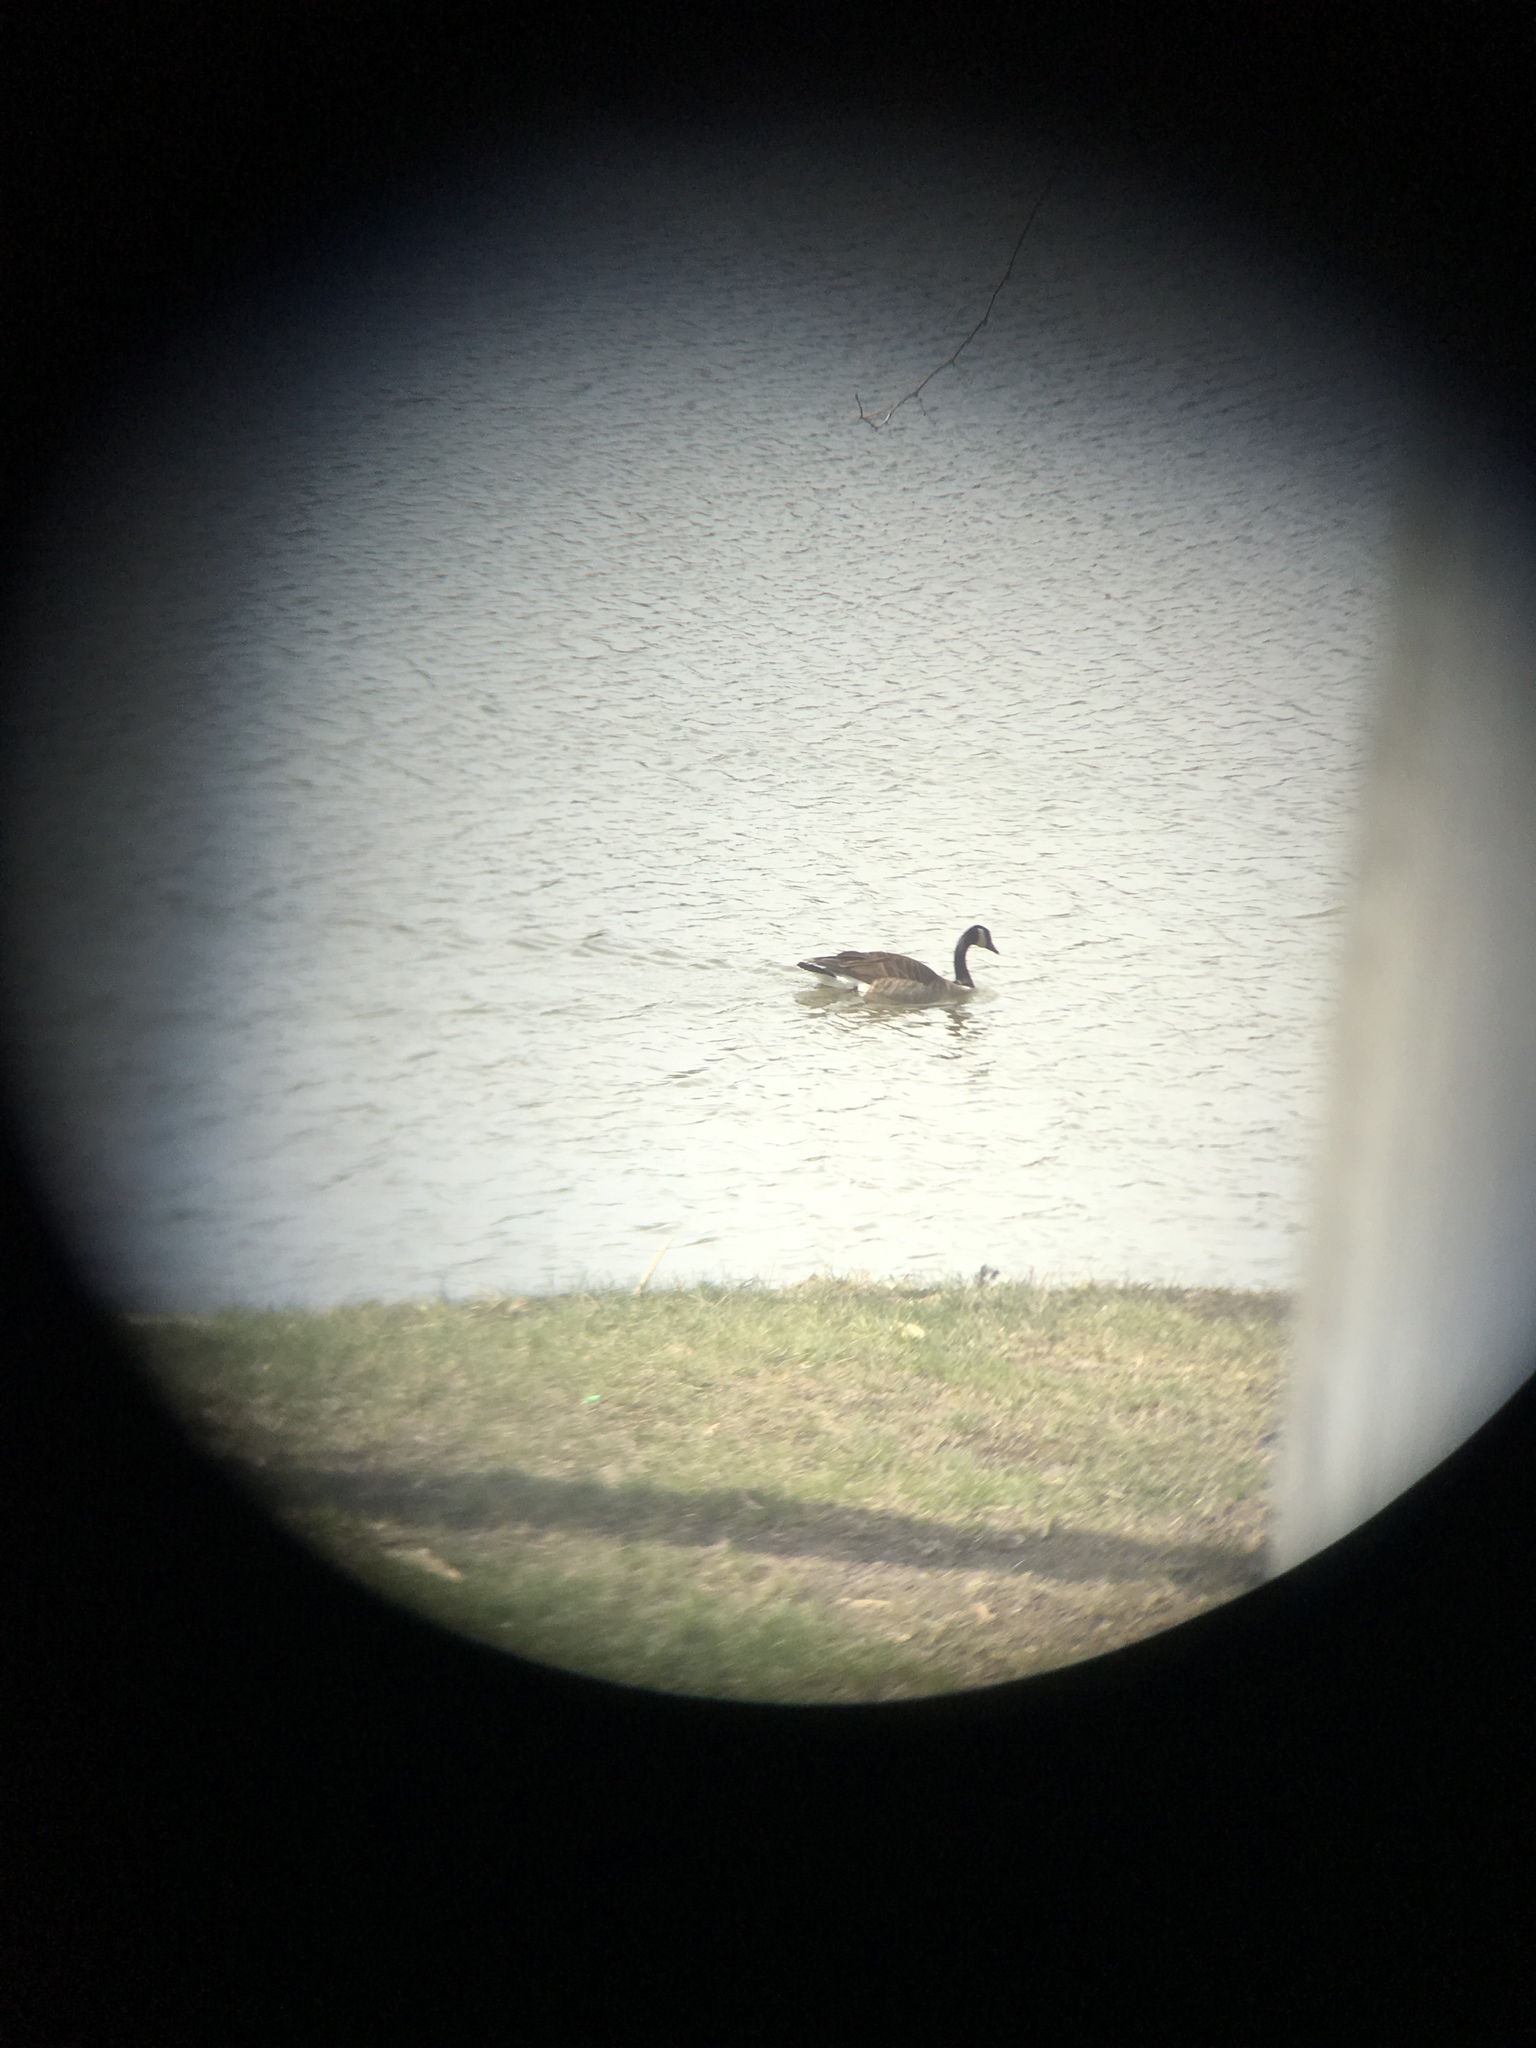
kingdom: Animalia
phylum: Chordata
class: Aves
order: Anseriformes
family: Anatidae
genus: Branta
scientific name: Branta canadensis
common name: Canada goose
